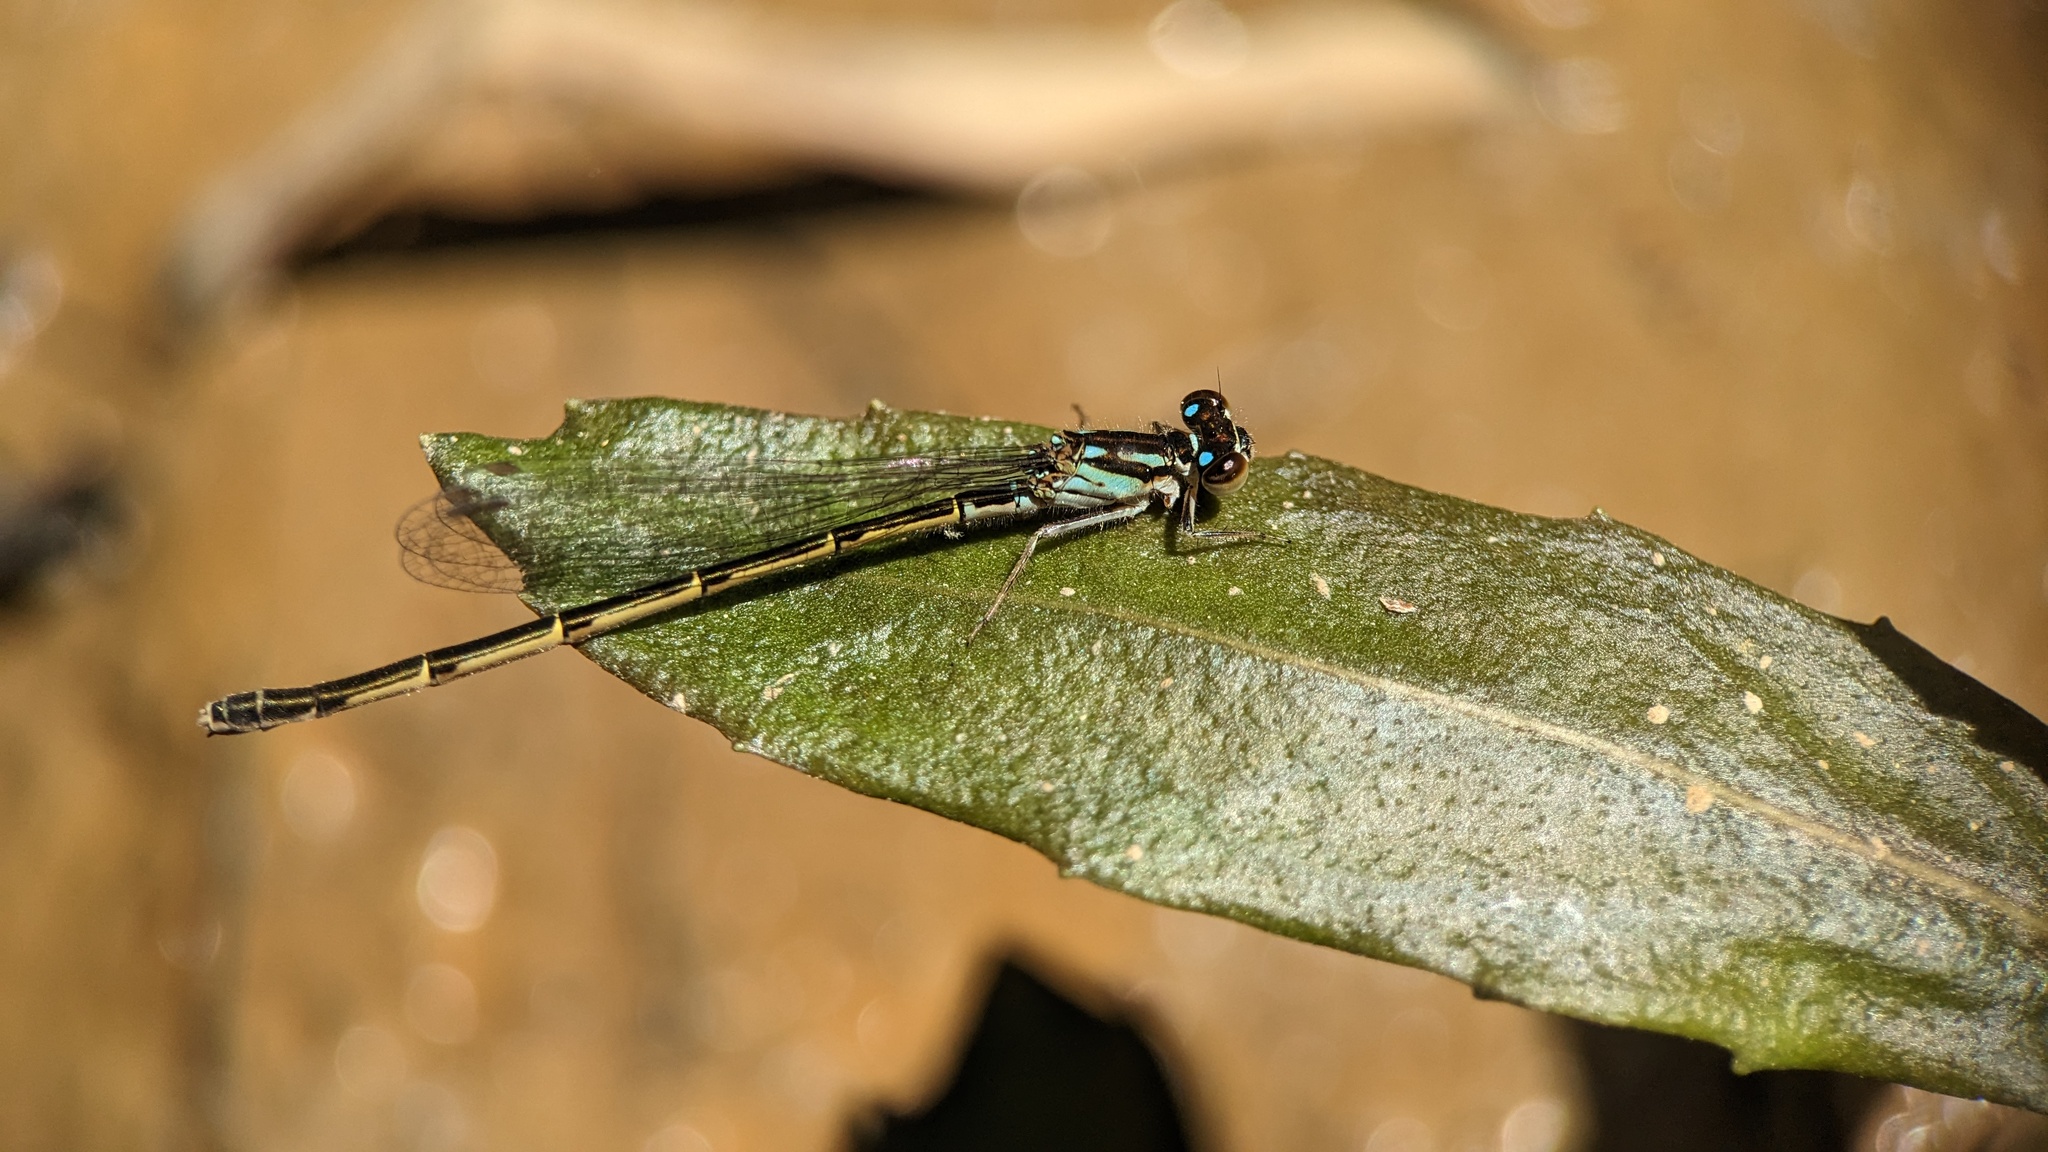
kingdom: Animalia
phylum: Arthropoda
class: Insecta
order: Odonata
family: Coenagrionidae
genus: Ischnura
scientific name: Ischnura posita
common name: Fragile forktail
